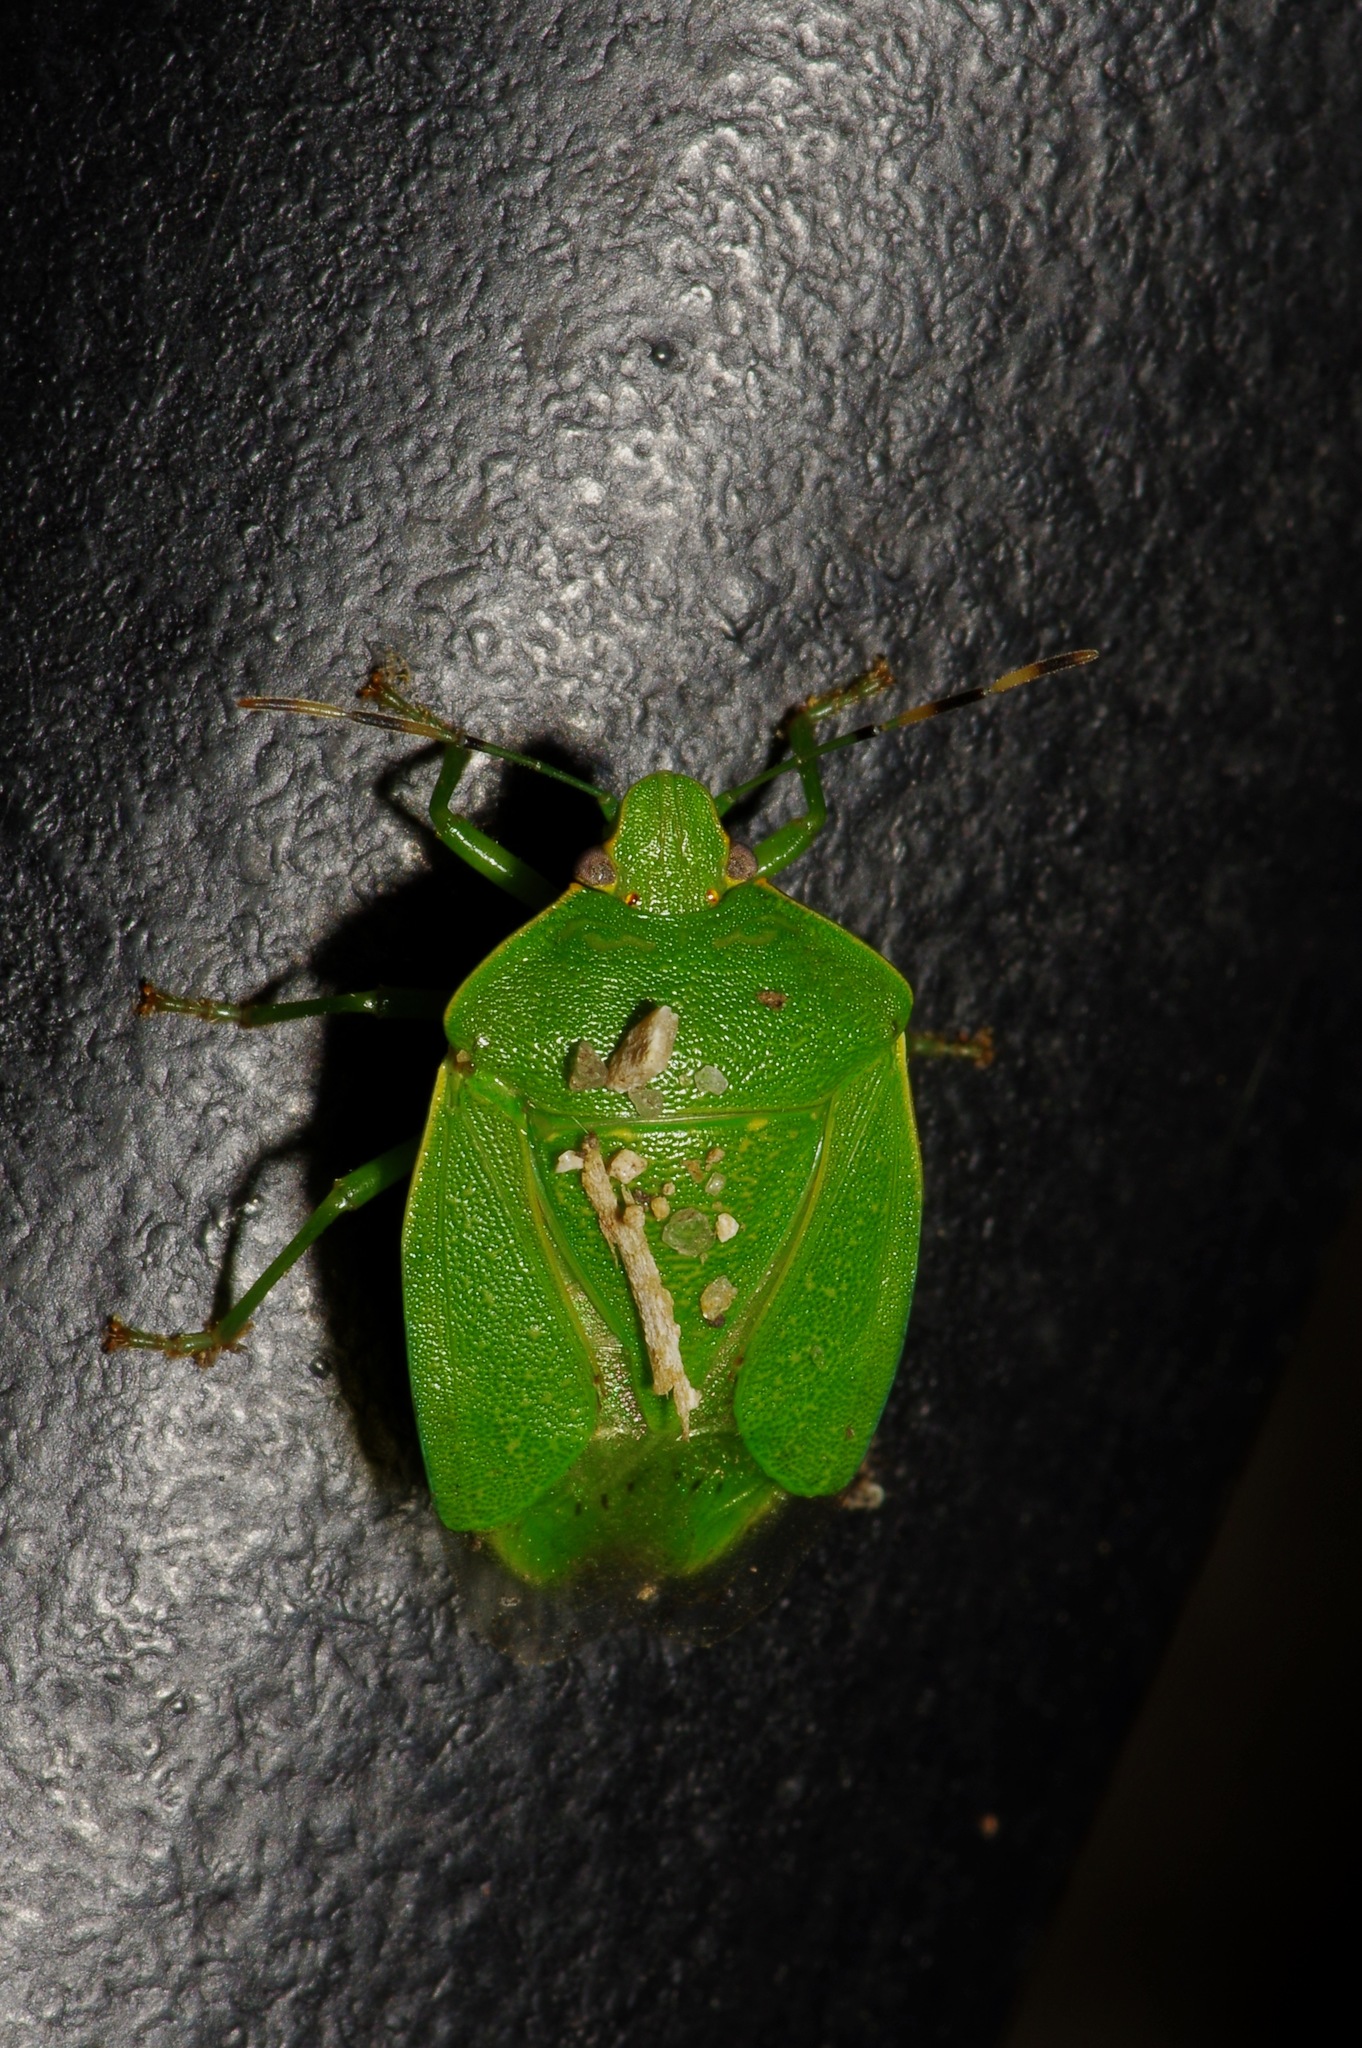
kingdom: Animalia
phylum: Arthropoda
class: Insecta
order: Hemiptera
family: Pentatomidae
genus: Chinavia
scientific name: Chinavia hilaris
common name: Green stink bug
